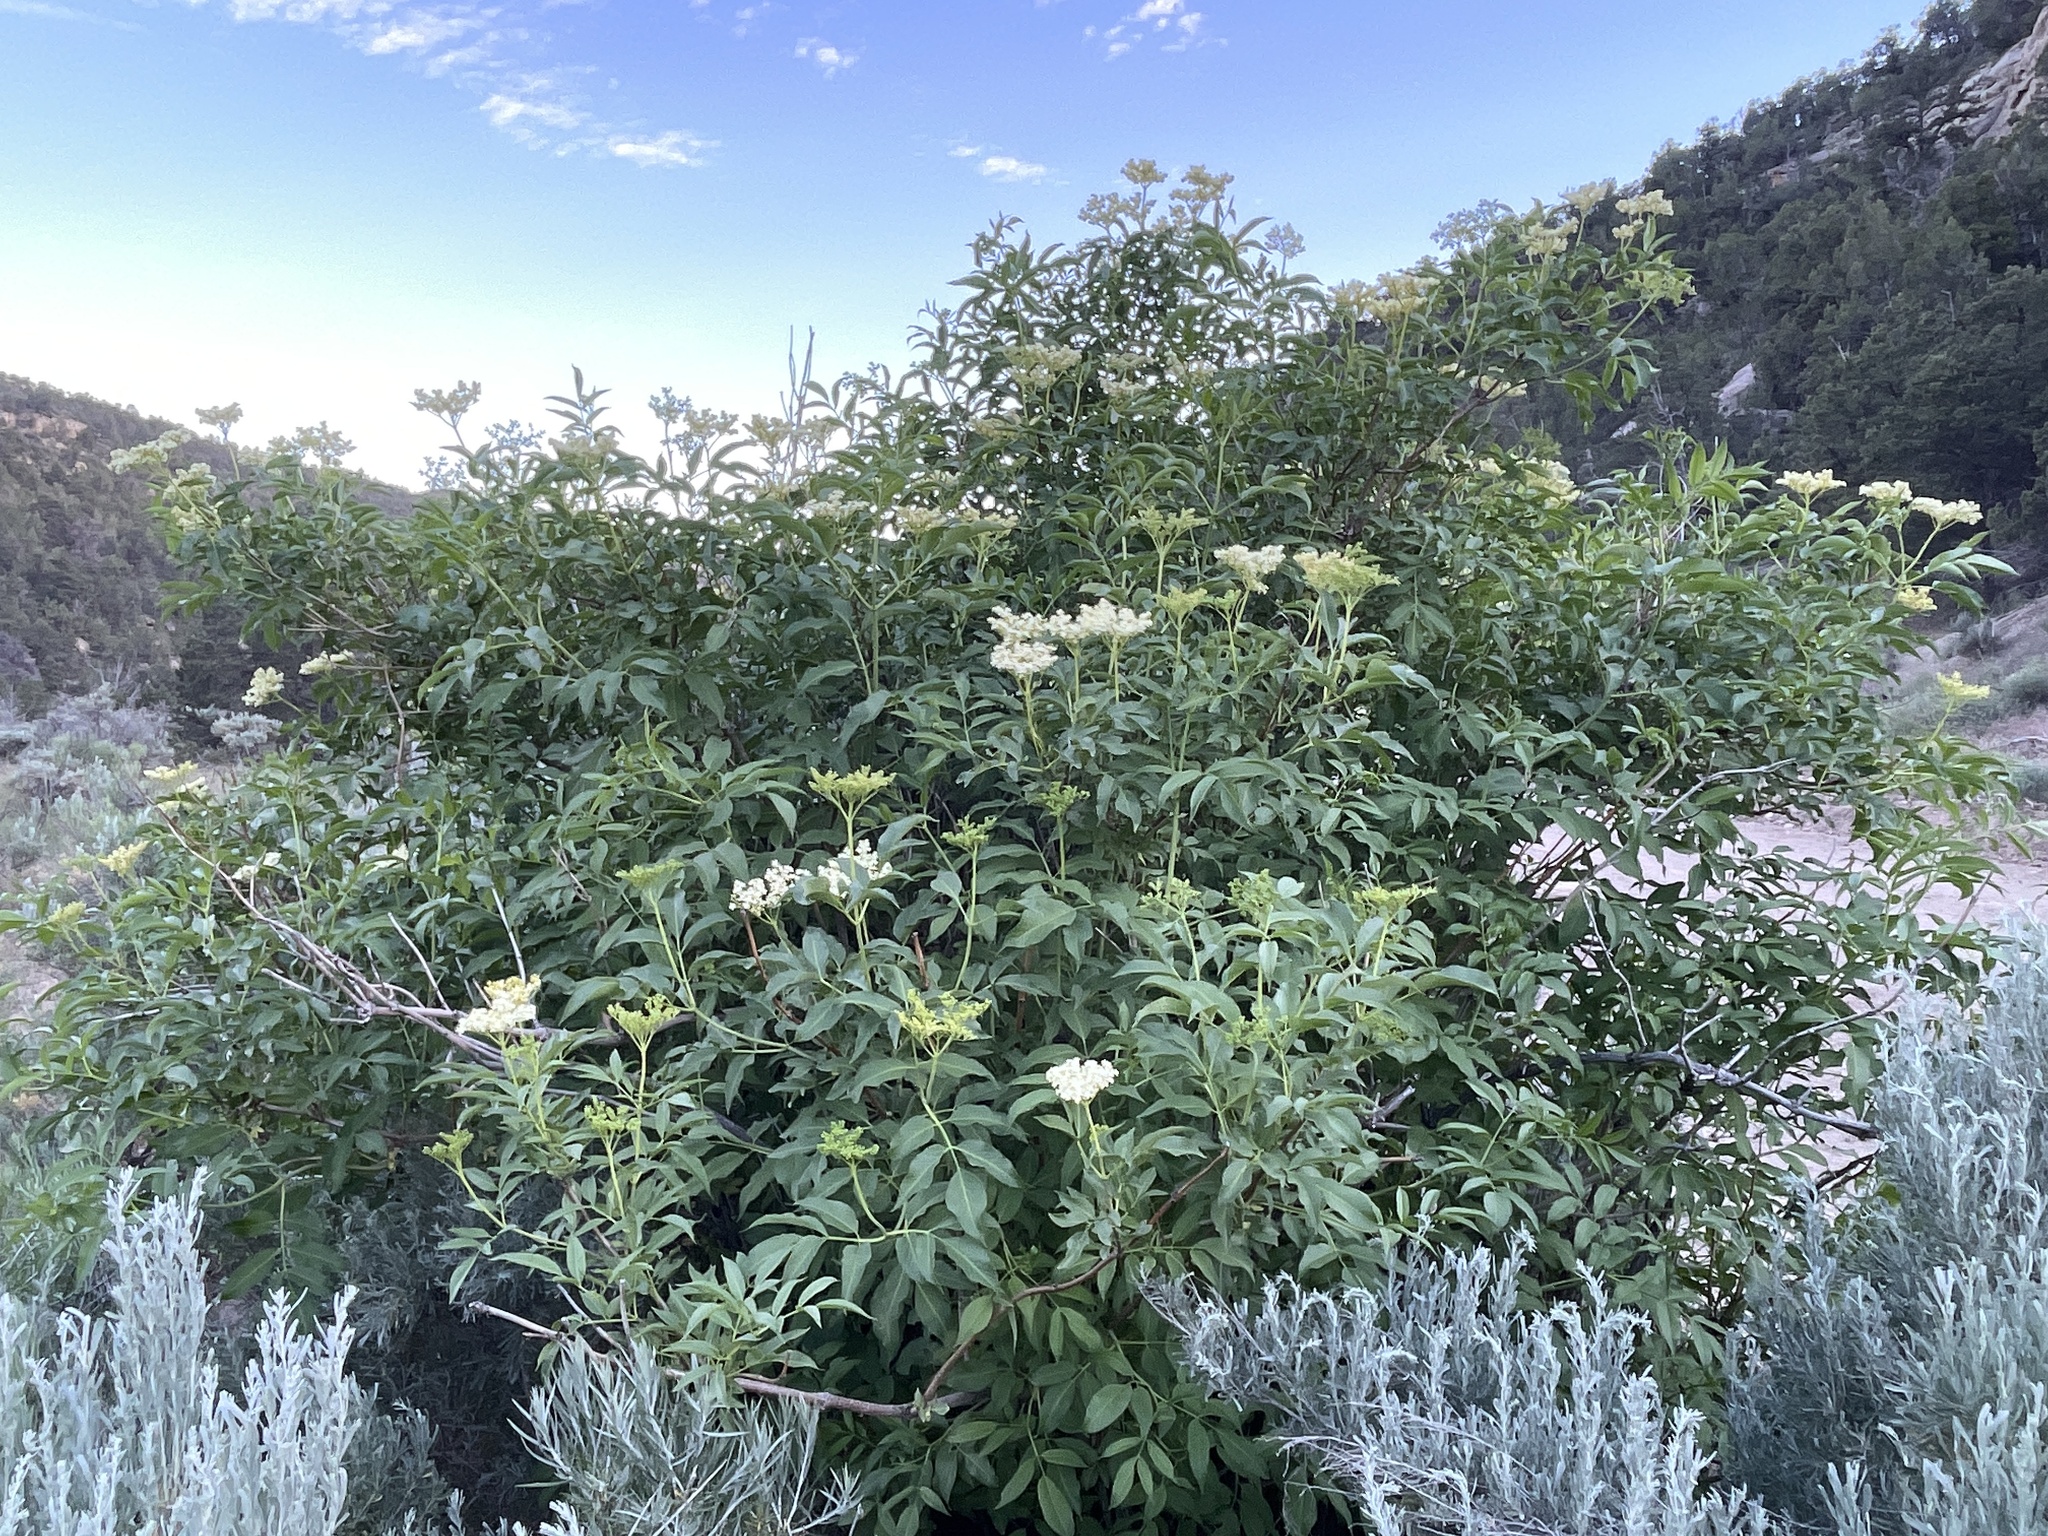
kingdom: Plantae
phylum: Tracheophyta
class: Magnoliopsida
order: Dipsacales
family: Viburnaceae
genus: Sambucus
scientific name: Sambucus cerulea
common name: Blue elder
